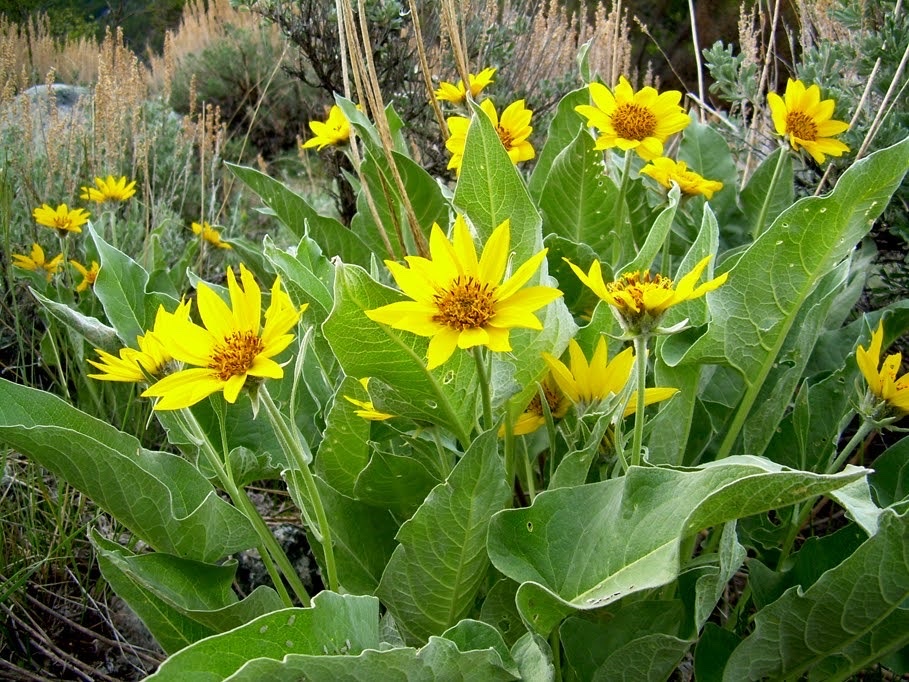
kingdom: Plantae
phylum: Tracheophyta
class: Magnoliopsida
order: Asterales
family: Asteraceae
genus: Wyethia
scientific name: Wyethia sagittata
